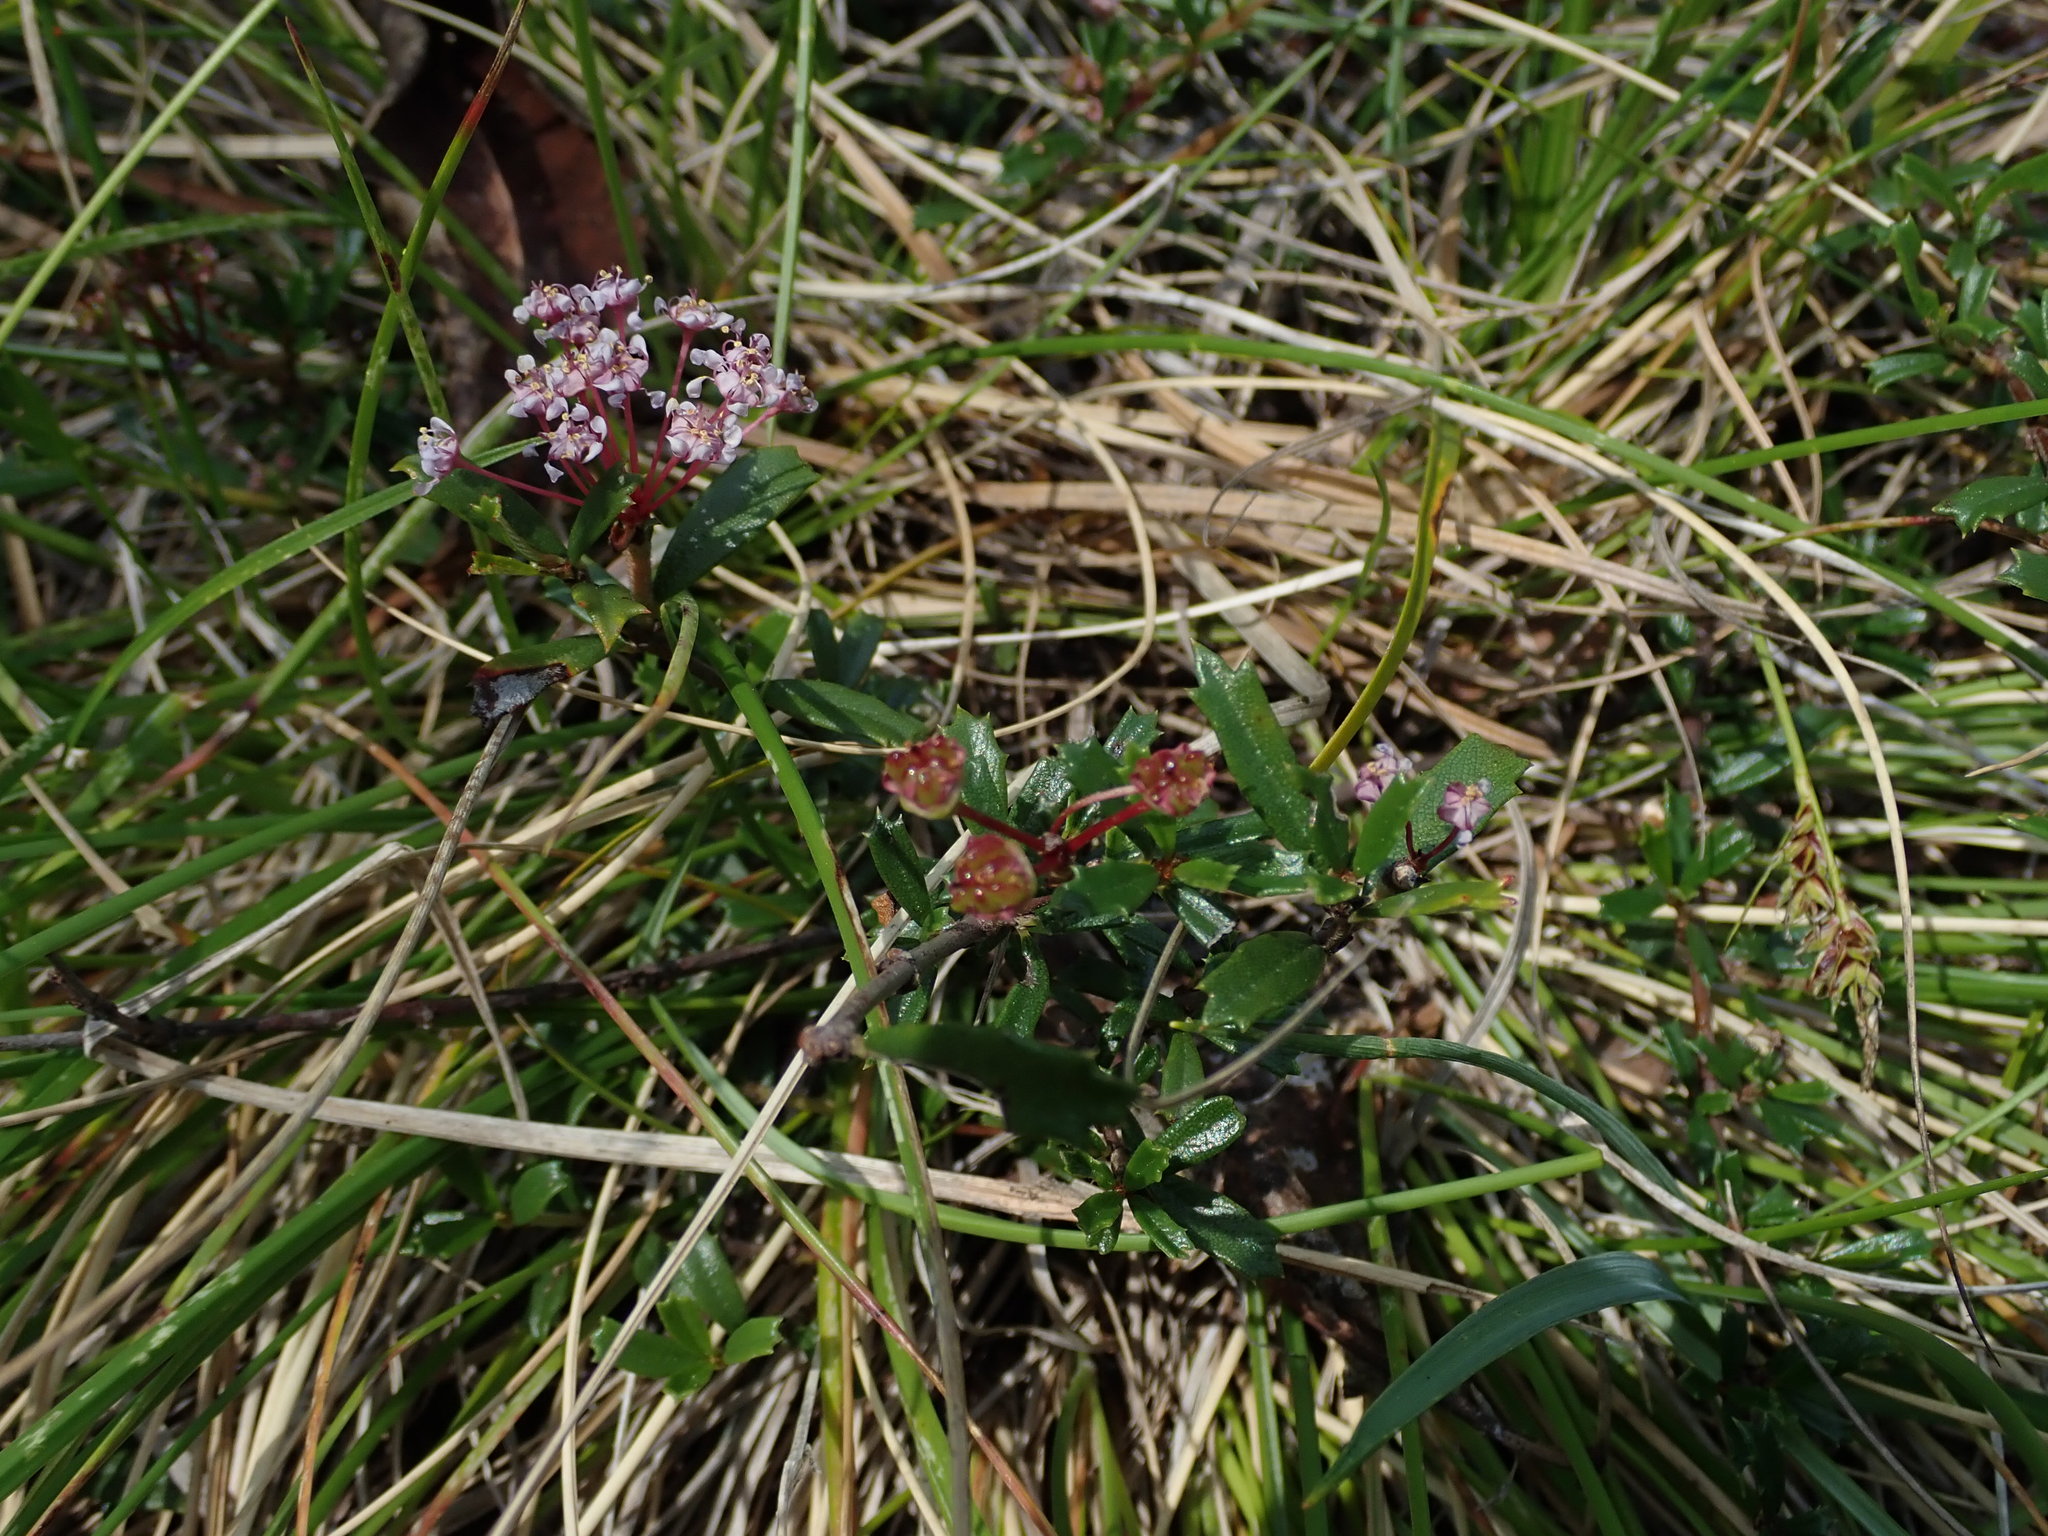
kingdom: Plantae
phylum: Tracheophyta
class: Magnoliopsida
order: Rosales
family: Rhamnaceae
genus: Ceanothus
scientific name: Ceanothus pumilus
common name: Siskiyou-mat
